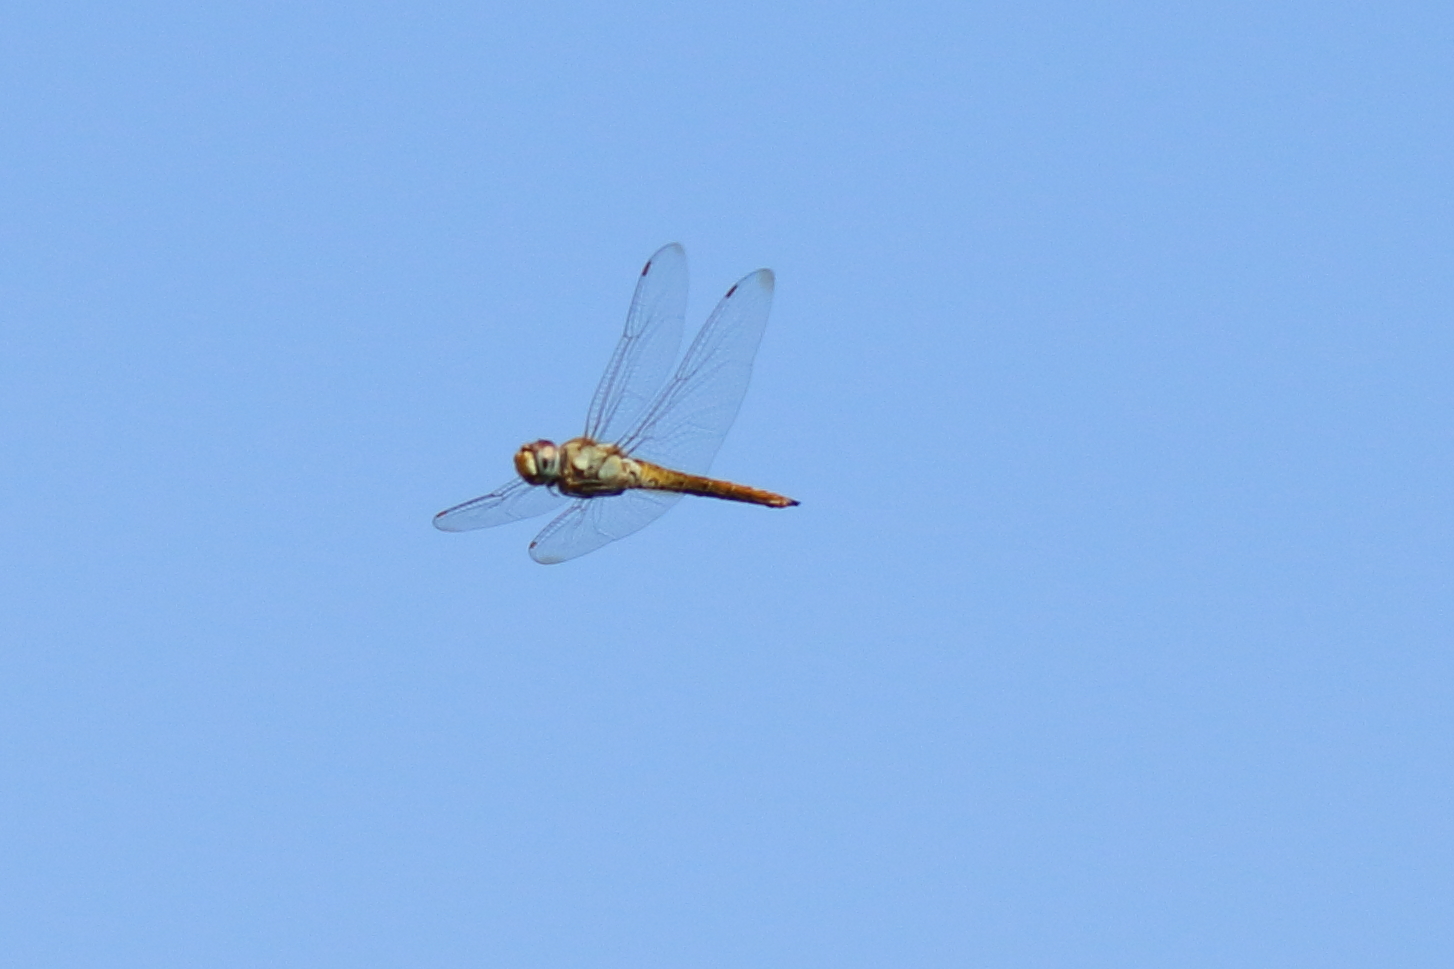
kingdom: Animalia
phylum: Arthropoda
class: Insecta
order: Odonata
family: Libellulidae
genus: Pantala
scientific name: Pantala flavescens
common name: Wandering glider
